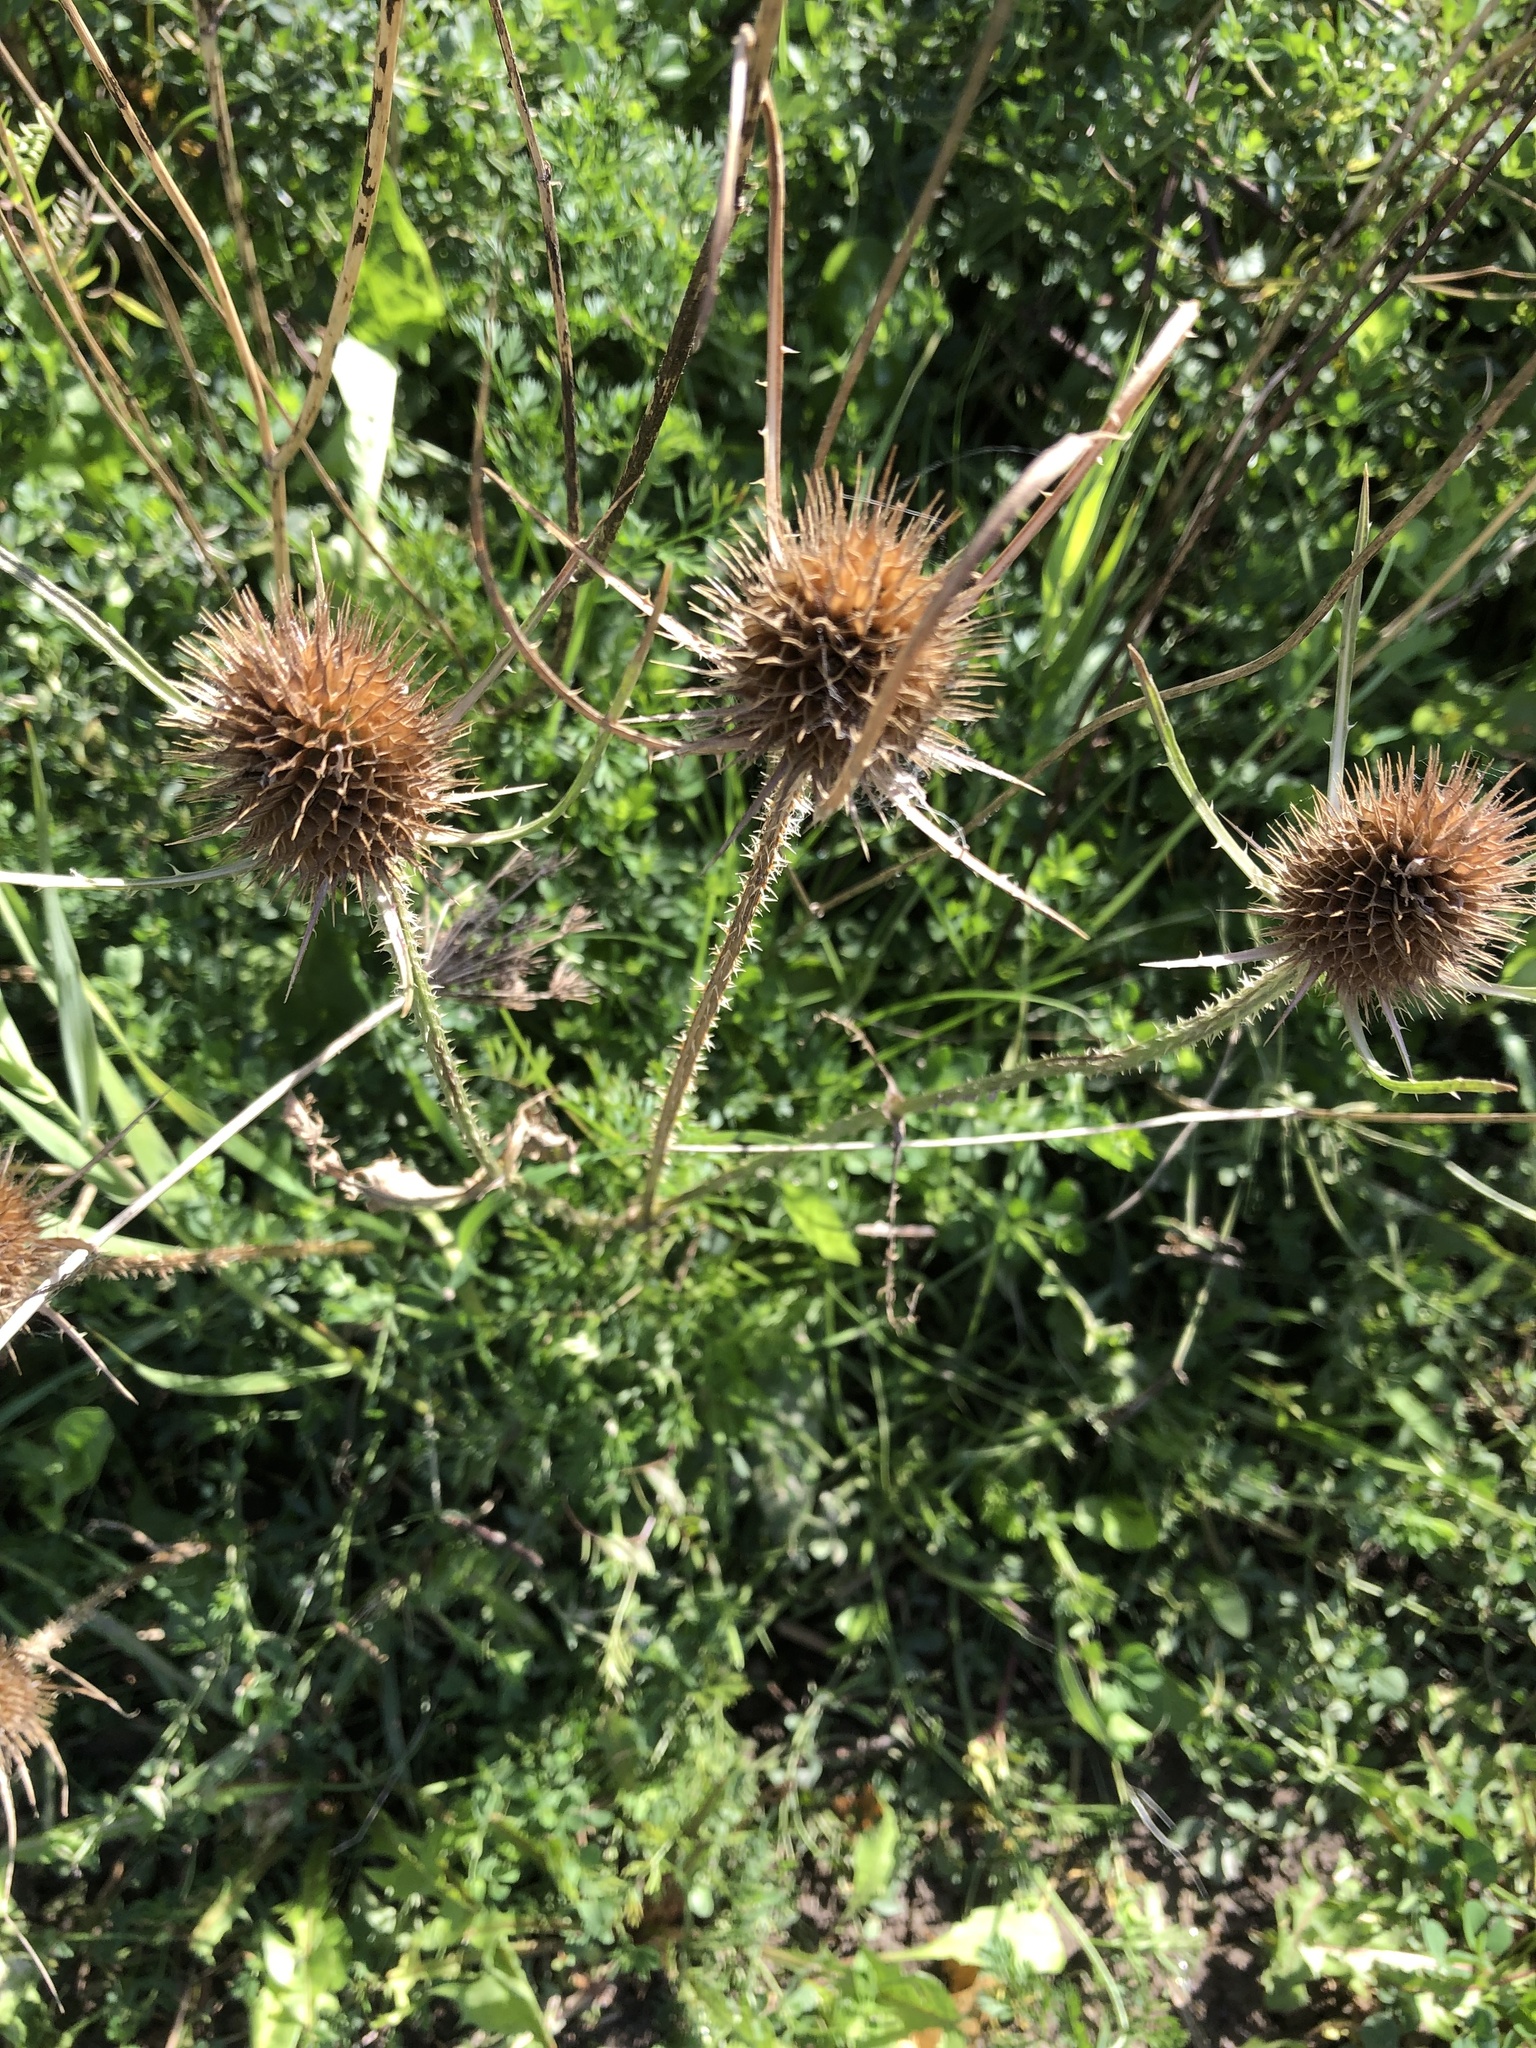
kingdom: Plantae
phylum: Tracheophyta
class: Magnoliopsida
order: Dipsacales
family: Caprifoliaceae
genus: Dipsacus
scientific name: Dipsacus fullonum
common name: Teasel
